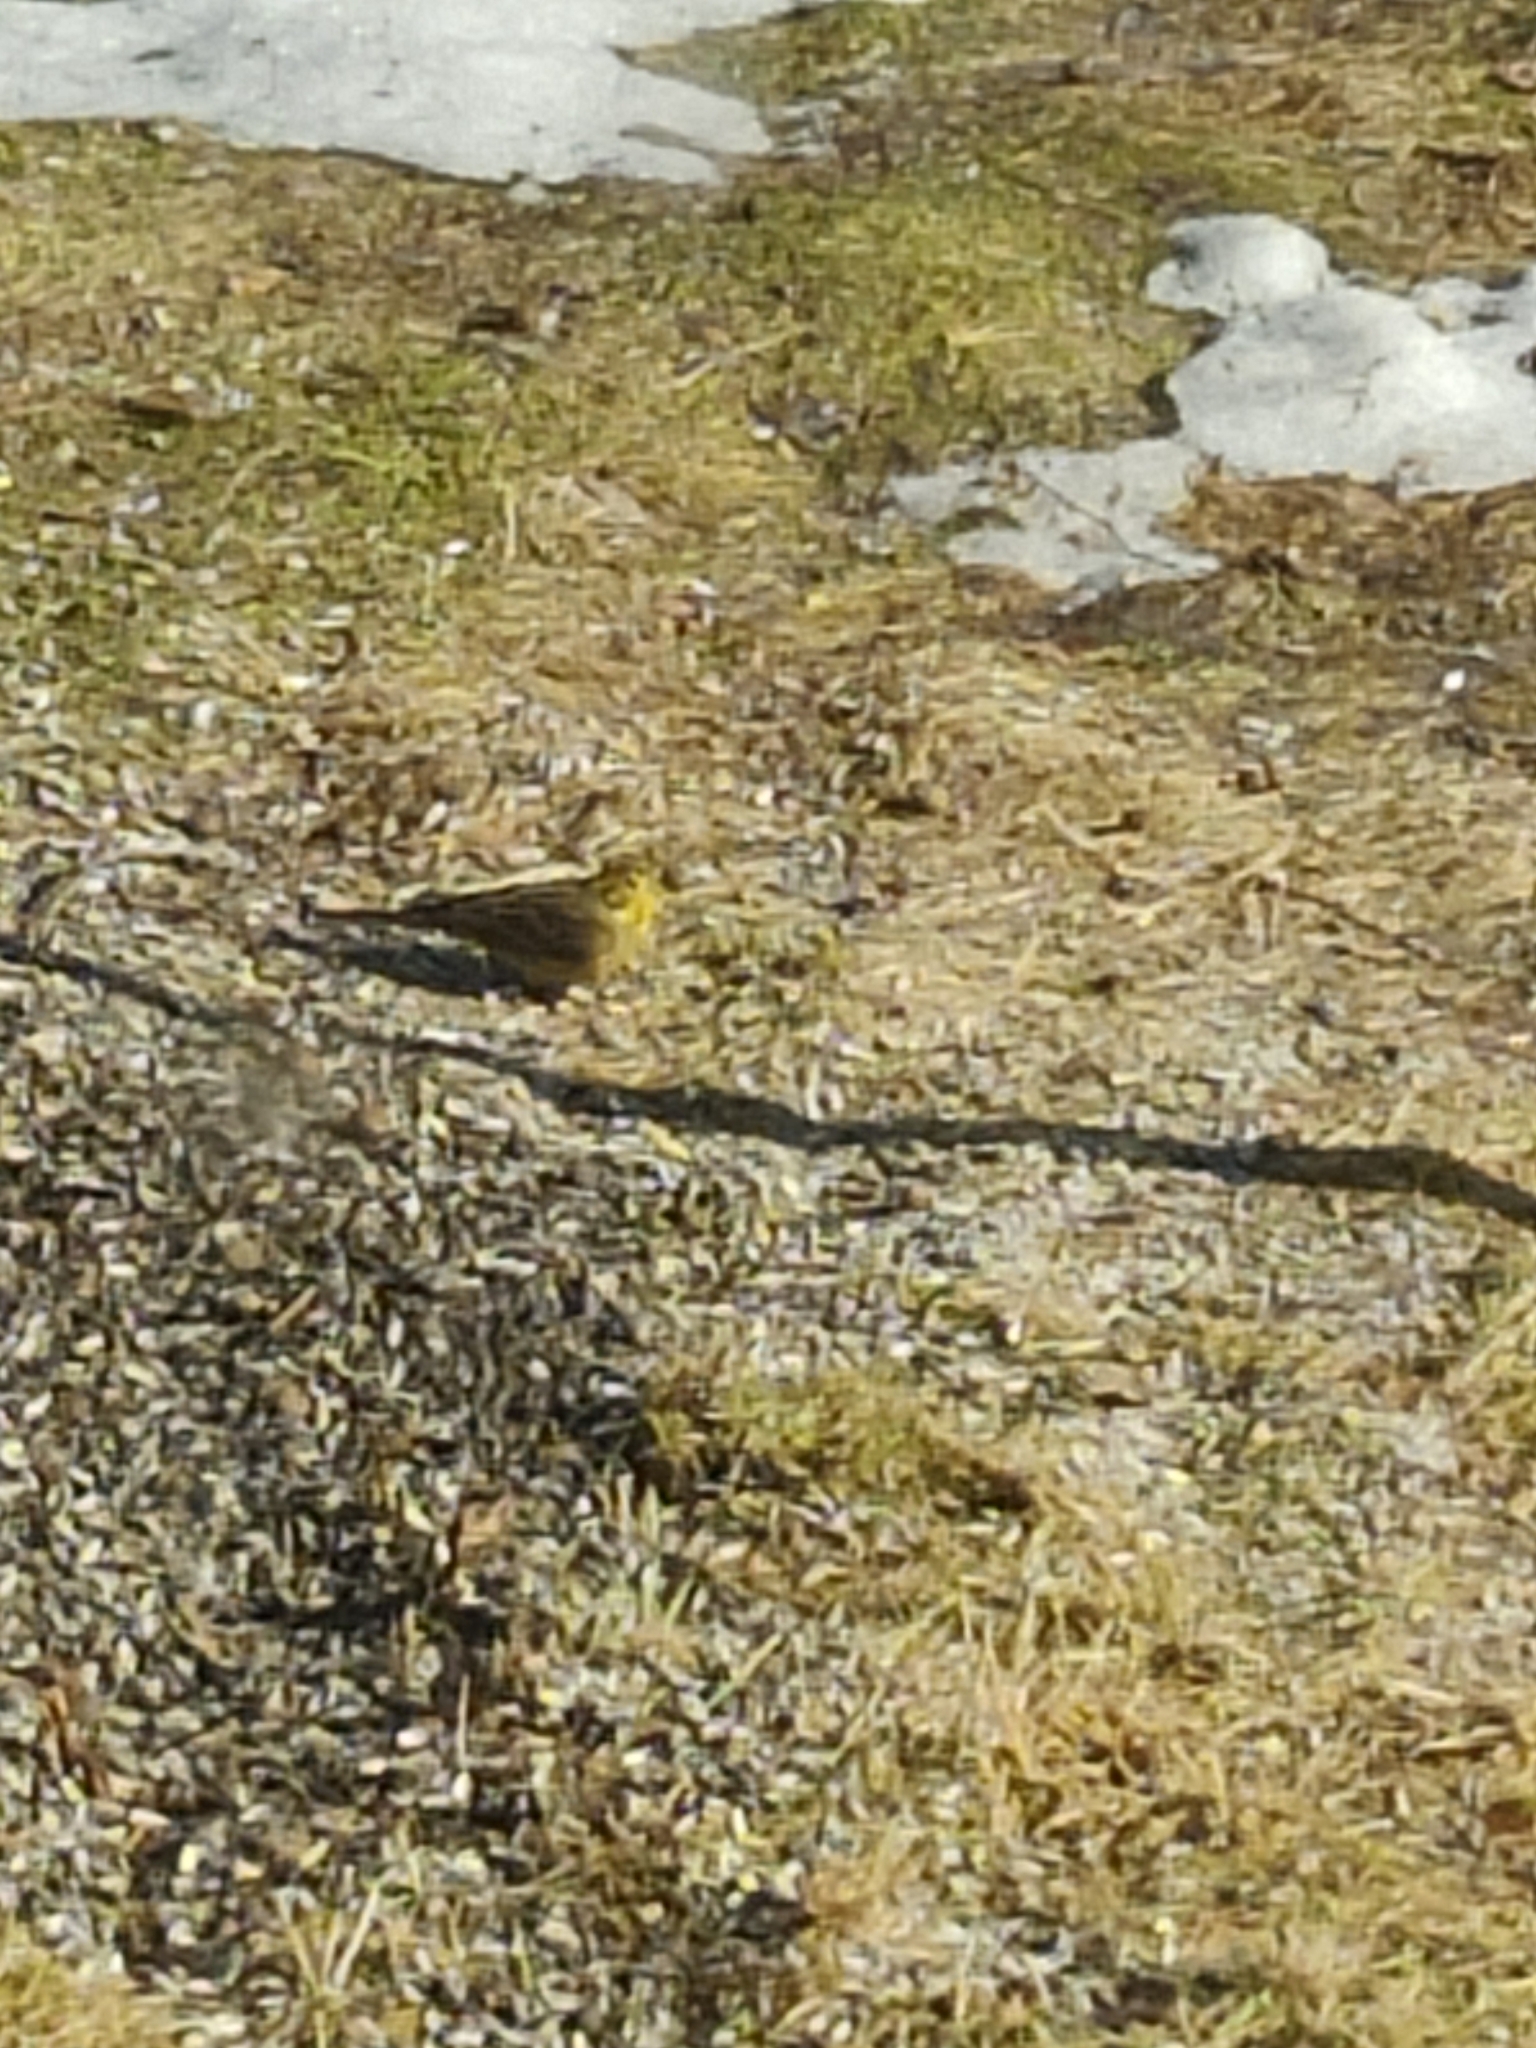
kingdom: Animalia
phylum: Chordata
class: Aves
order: Passeriformes
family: Emberizidae
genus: Emberiza
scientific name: Emberiza citrinella
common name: Yellowhammer
